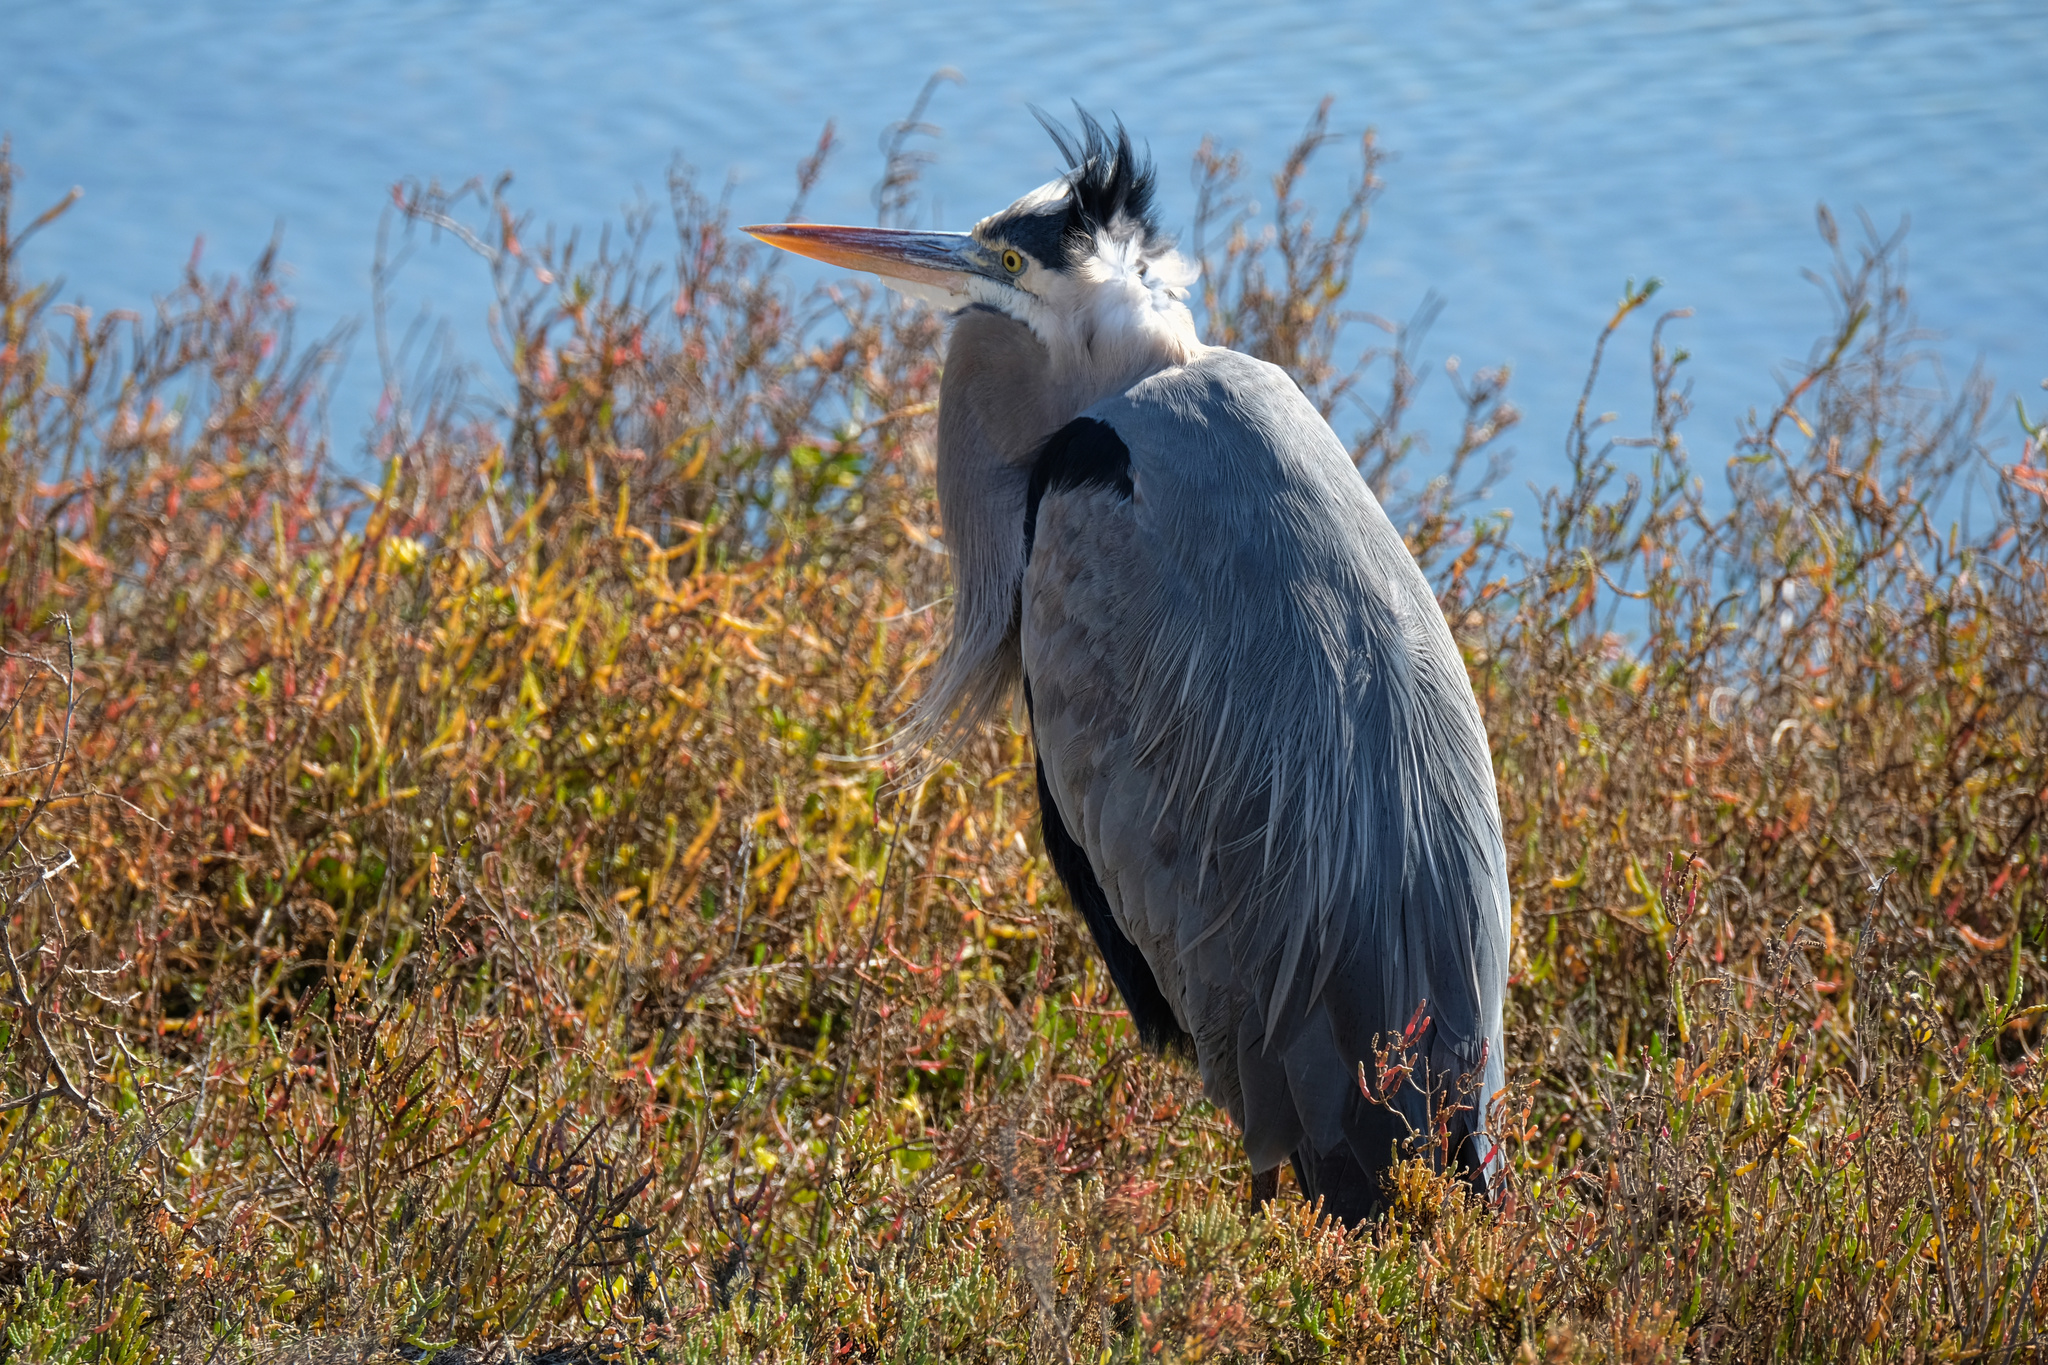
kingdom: Animalia
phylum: Chordata
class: Aves
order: Pelecaniformes
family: Ardeidae
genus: Ardea
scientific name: Ardea herodias
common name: Great blue heron
